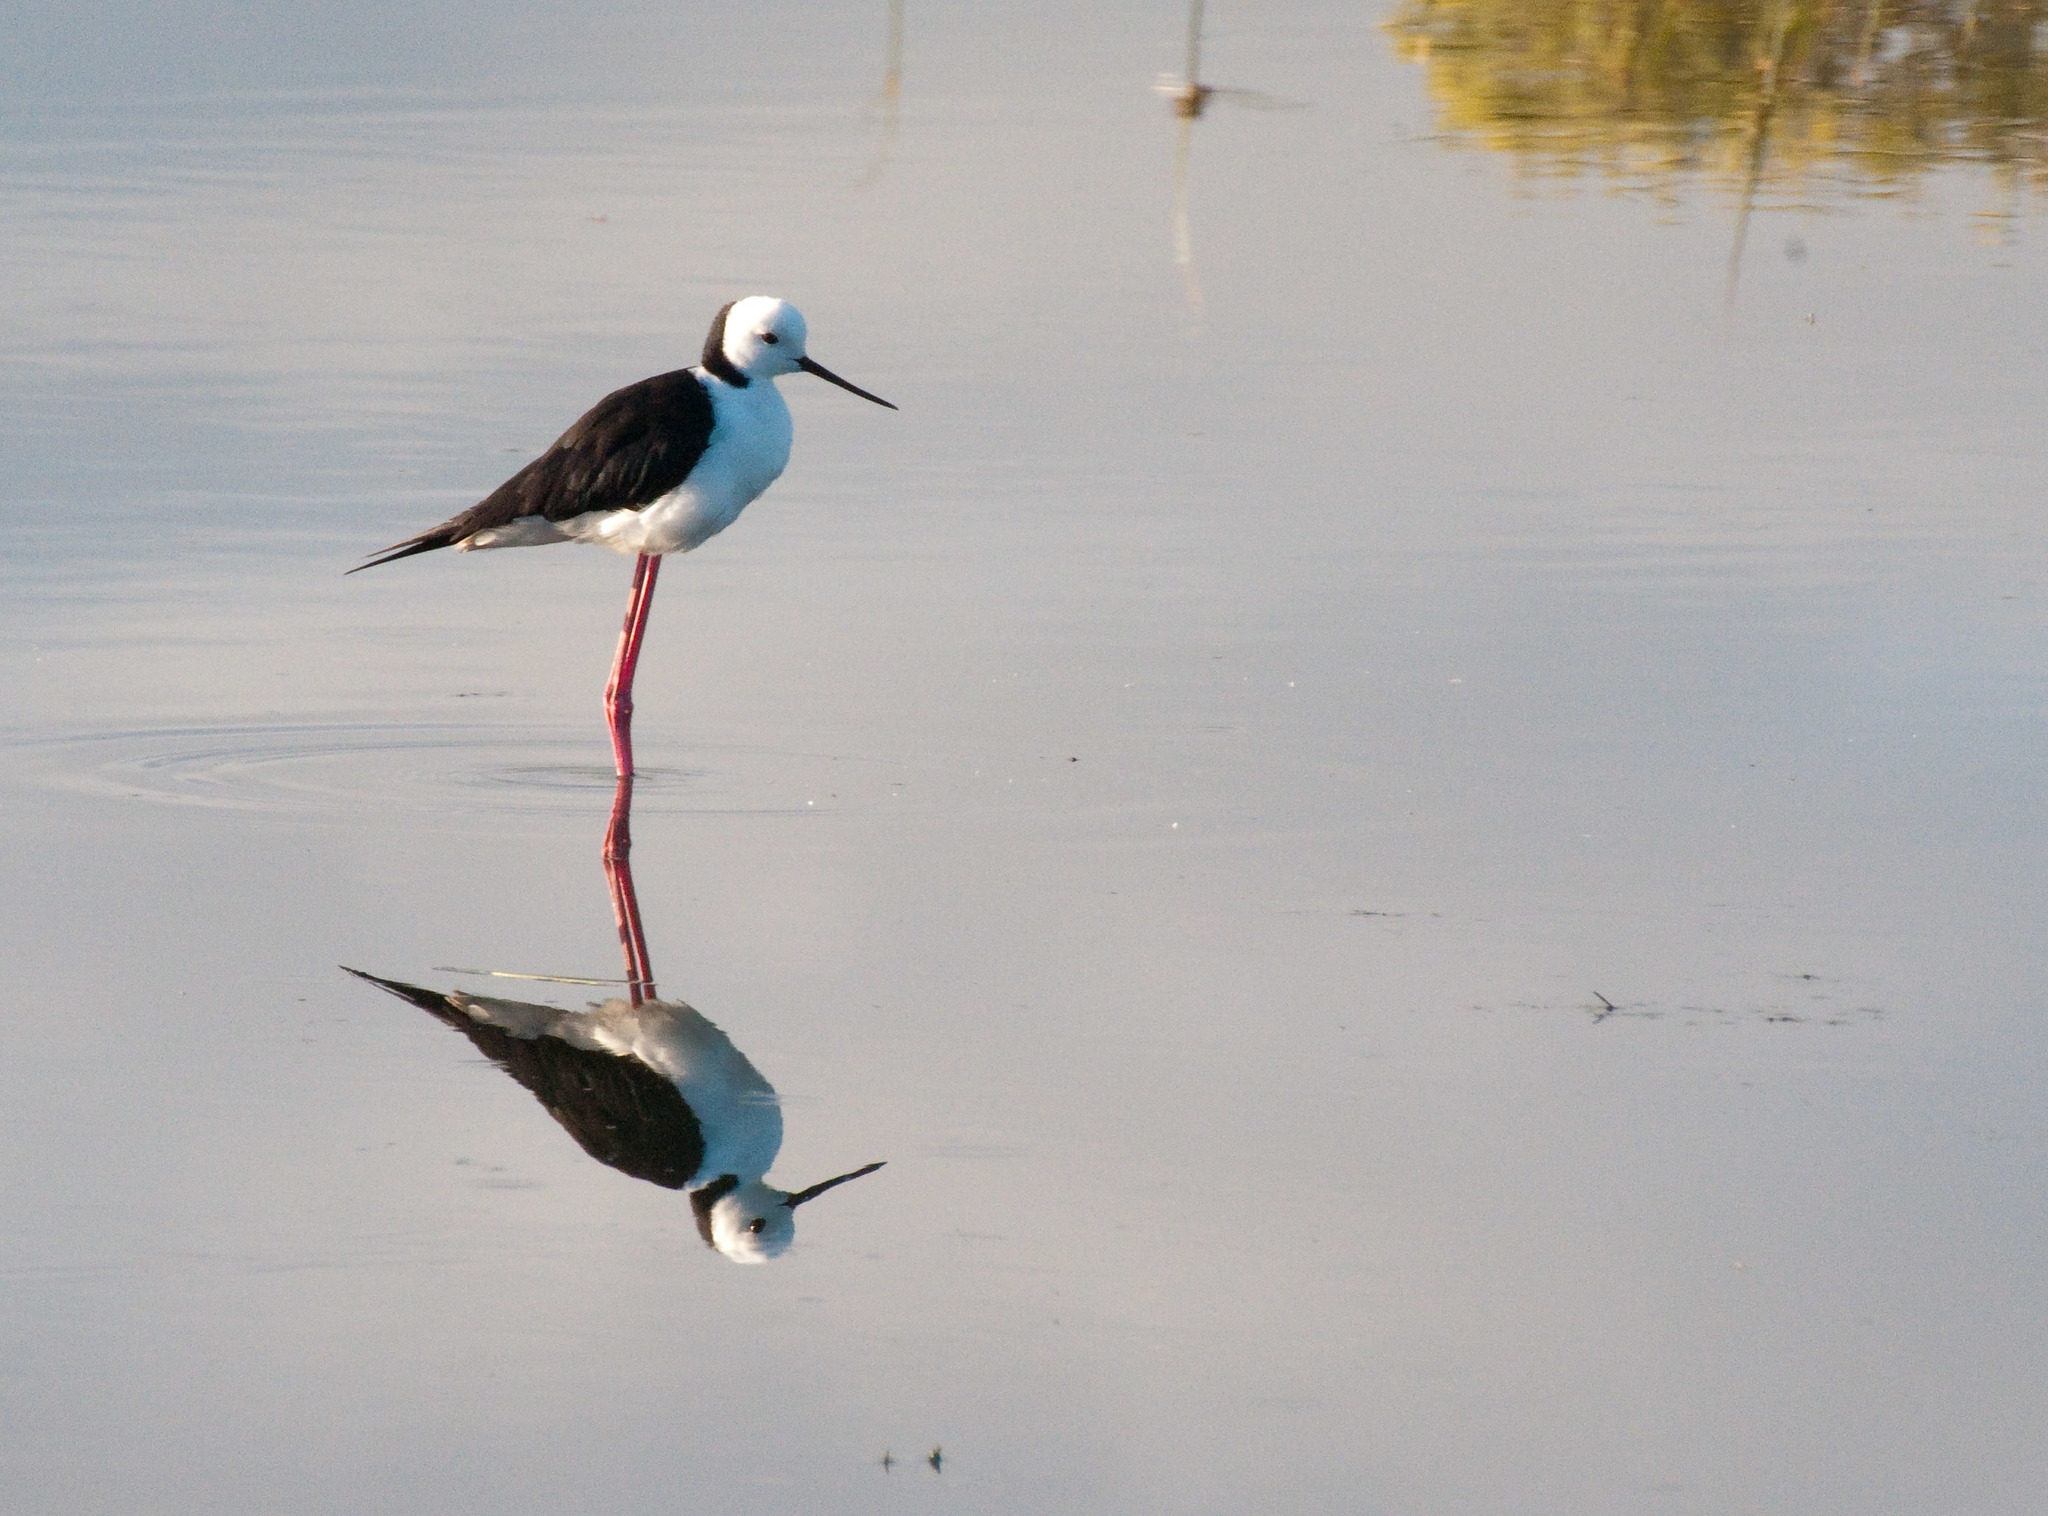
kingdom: Animalia
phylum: Chordata
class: Aves
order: Charadriiformes
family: Recurvirostridae
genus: Himantopus
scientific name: Himantopus leucocephalus
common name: White-headed stilt
